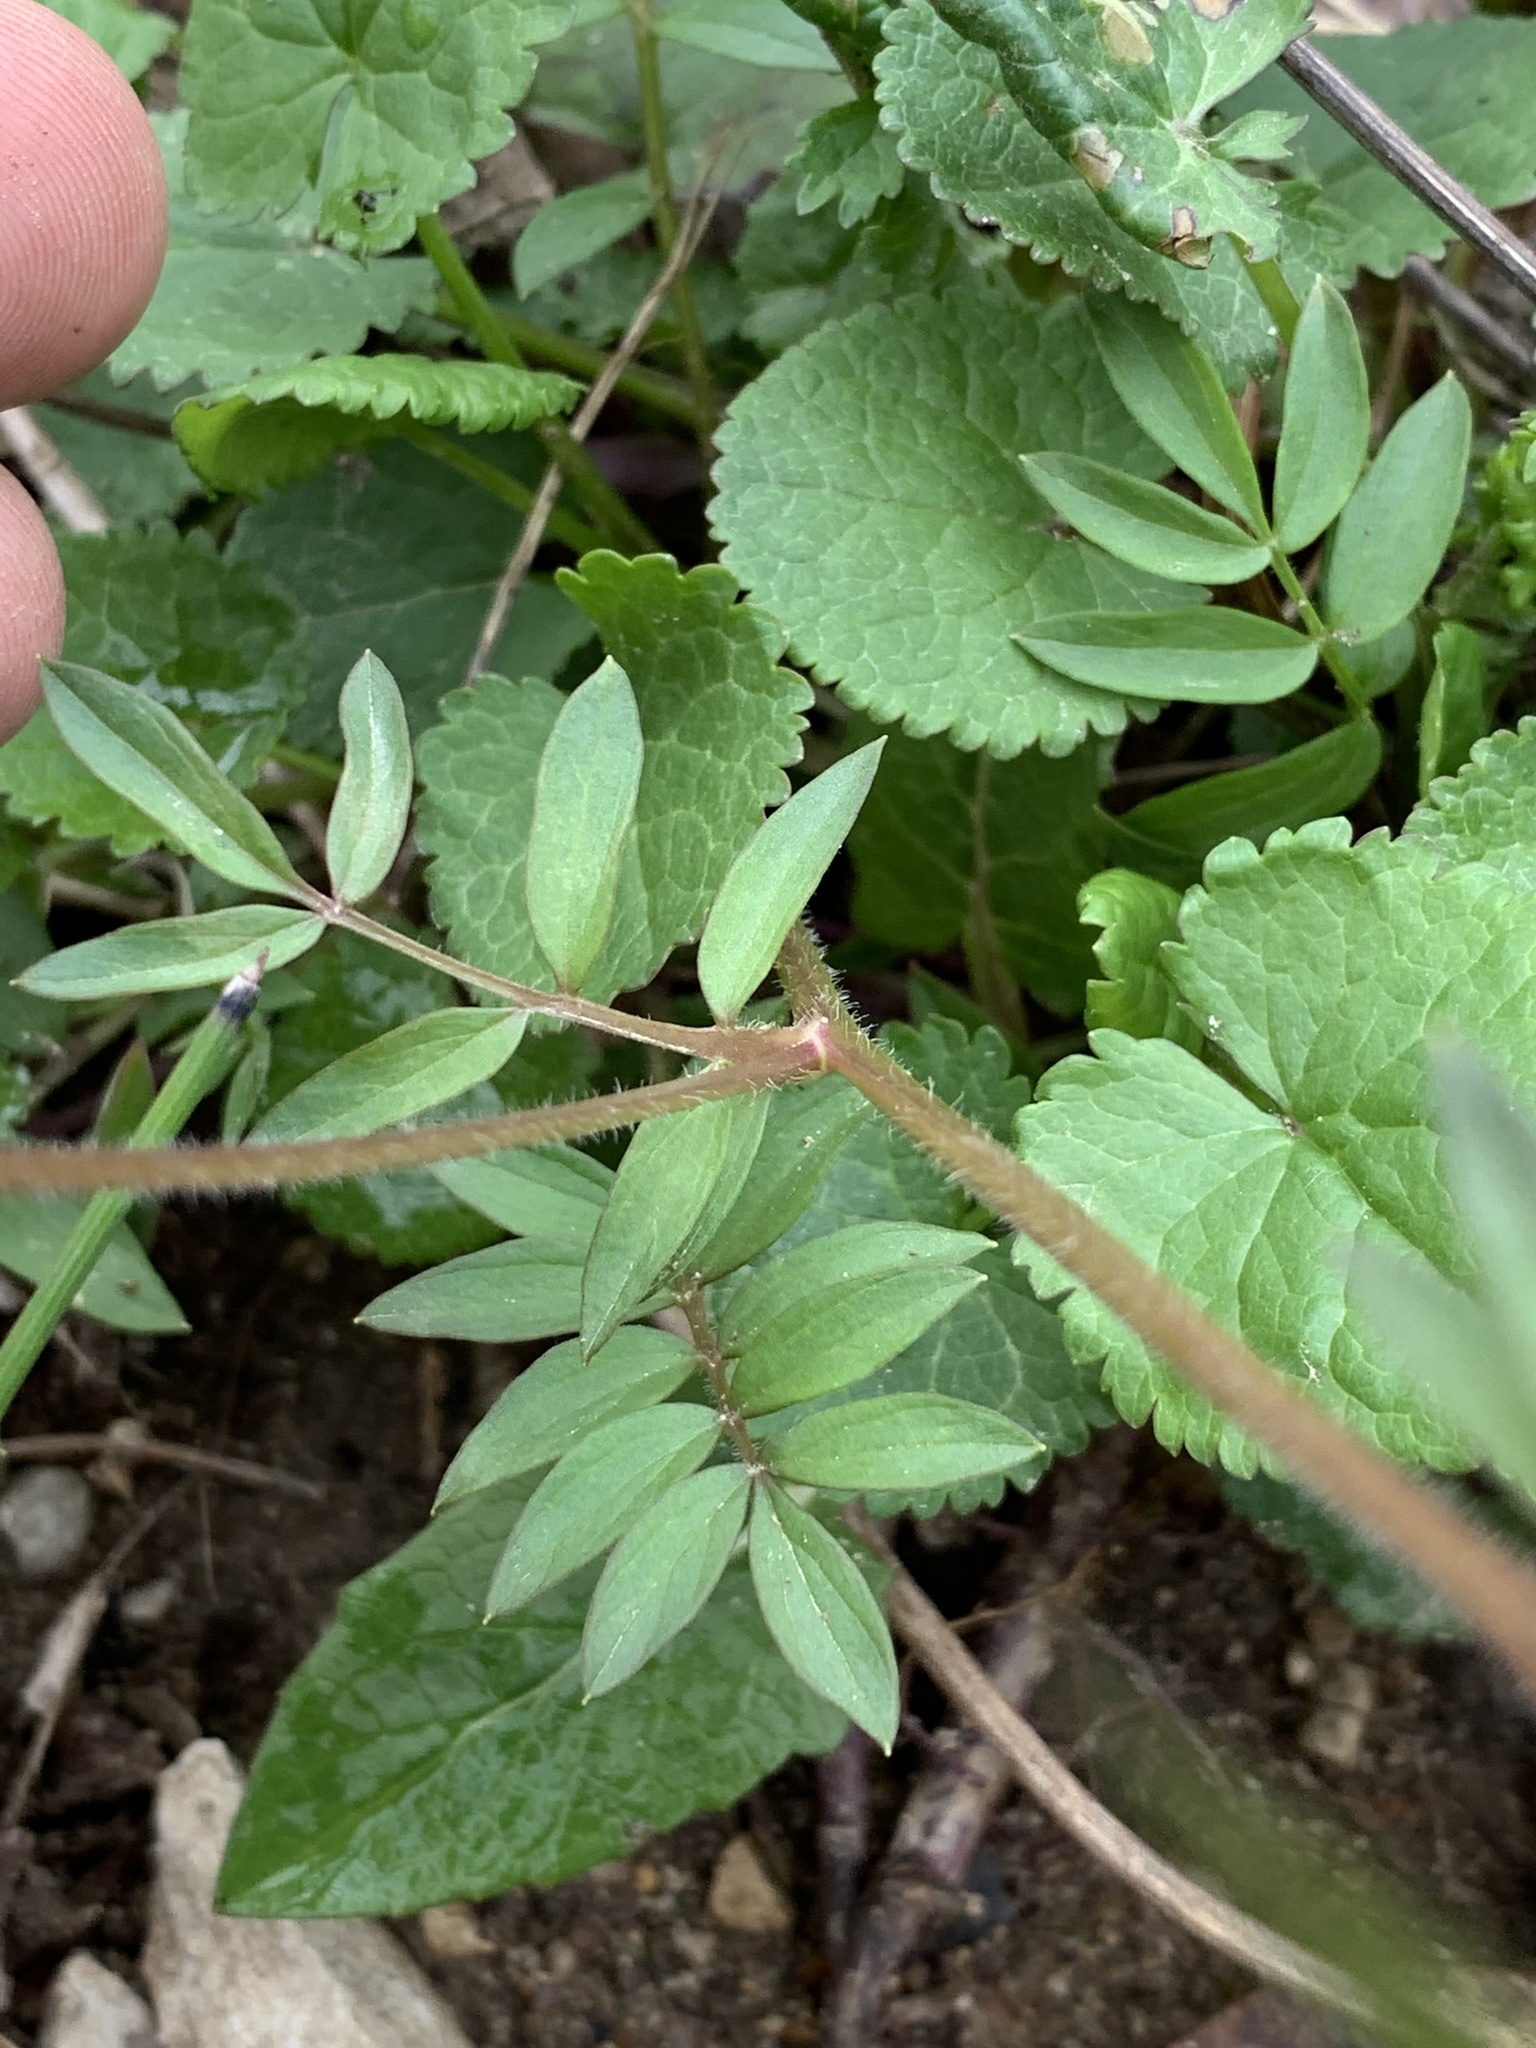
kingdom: Plantae
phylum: Tracheophyta
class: Magnoliopsida
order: Ericales
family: Polemoniaceae
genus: Polemonium
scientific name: Polemonium reptans
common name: Creeping jacob's-ladder
